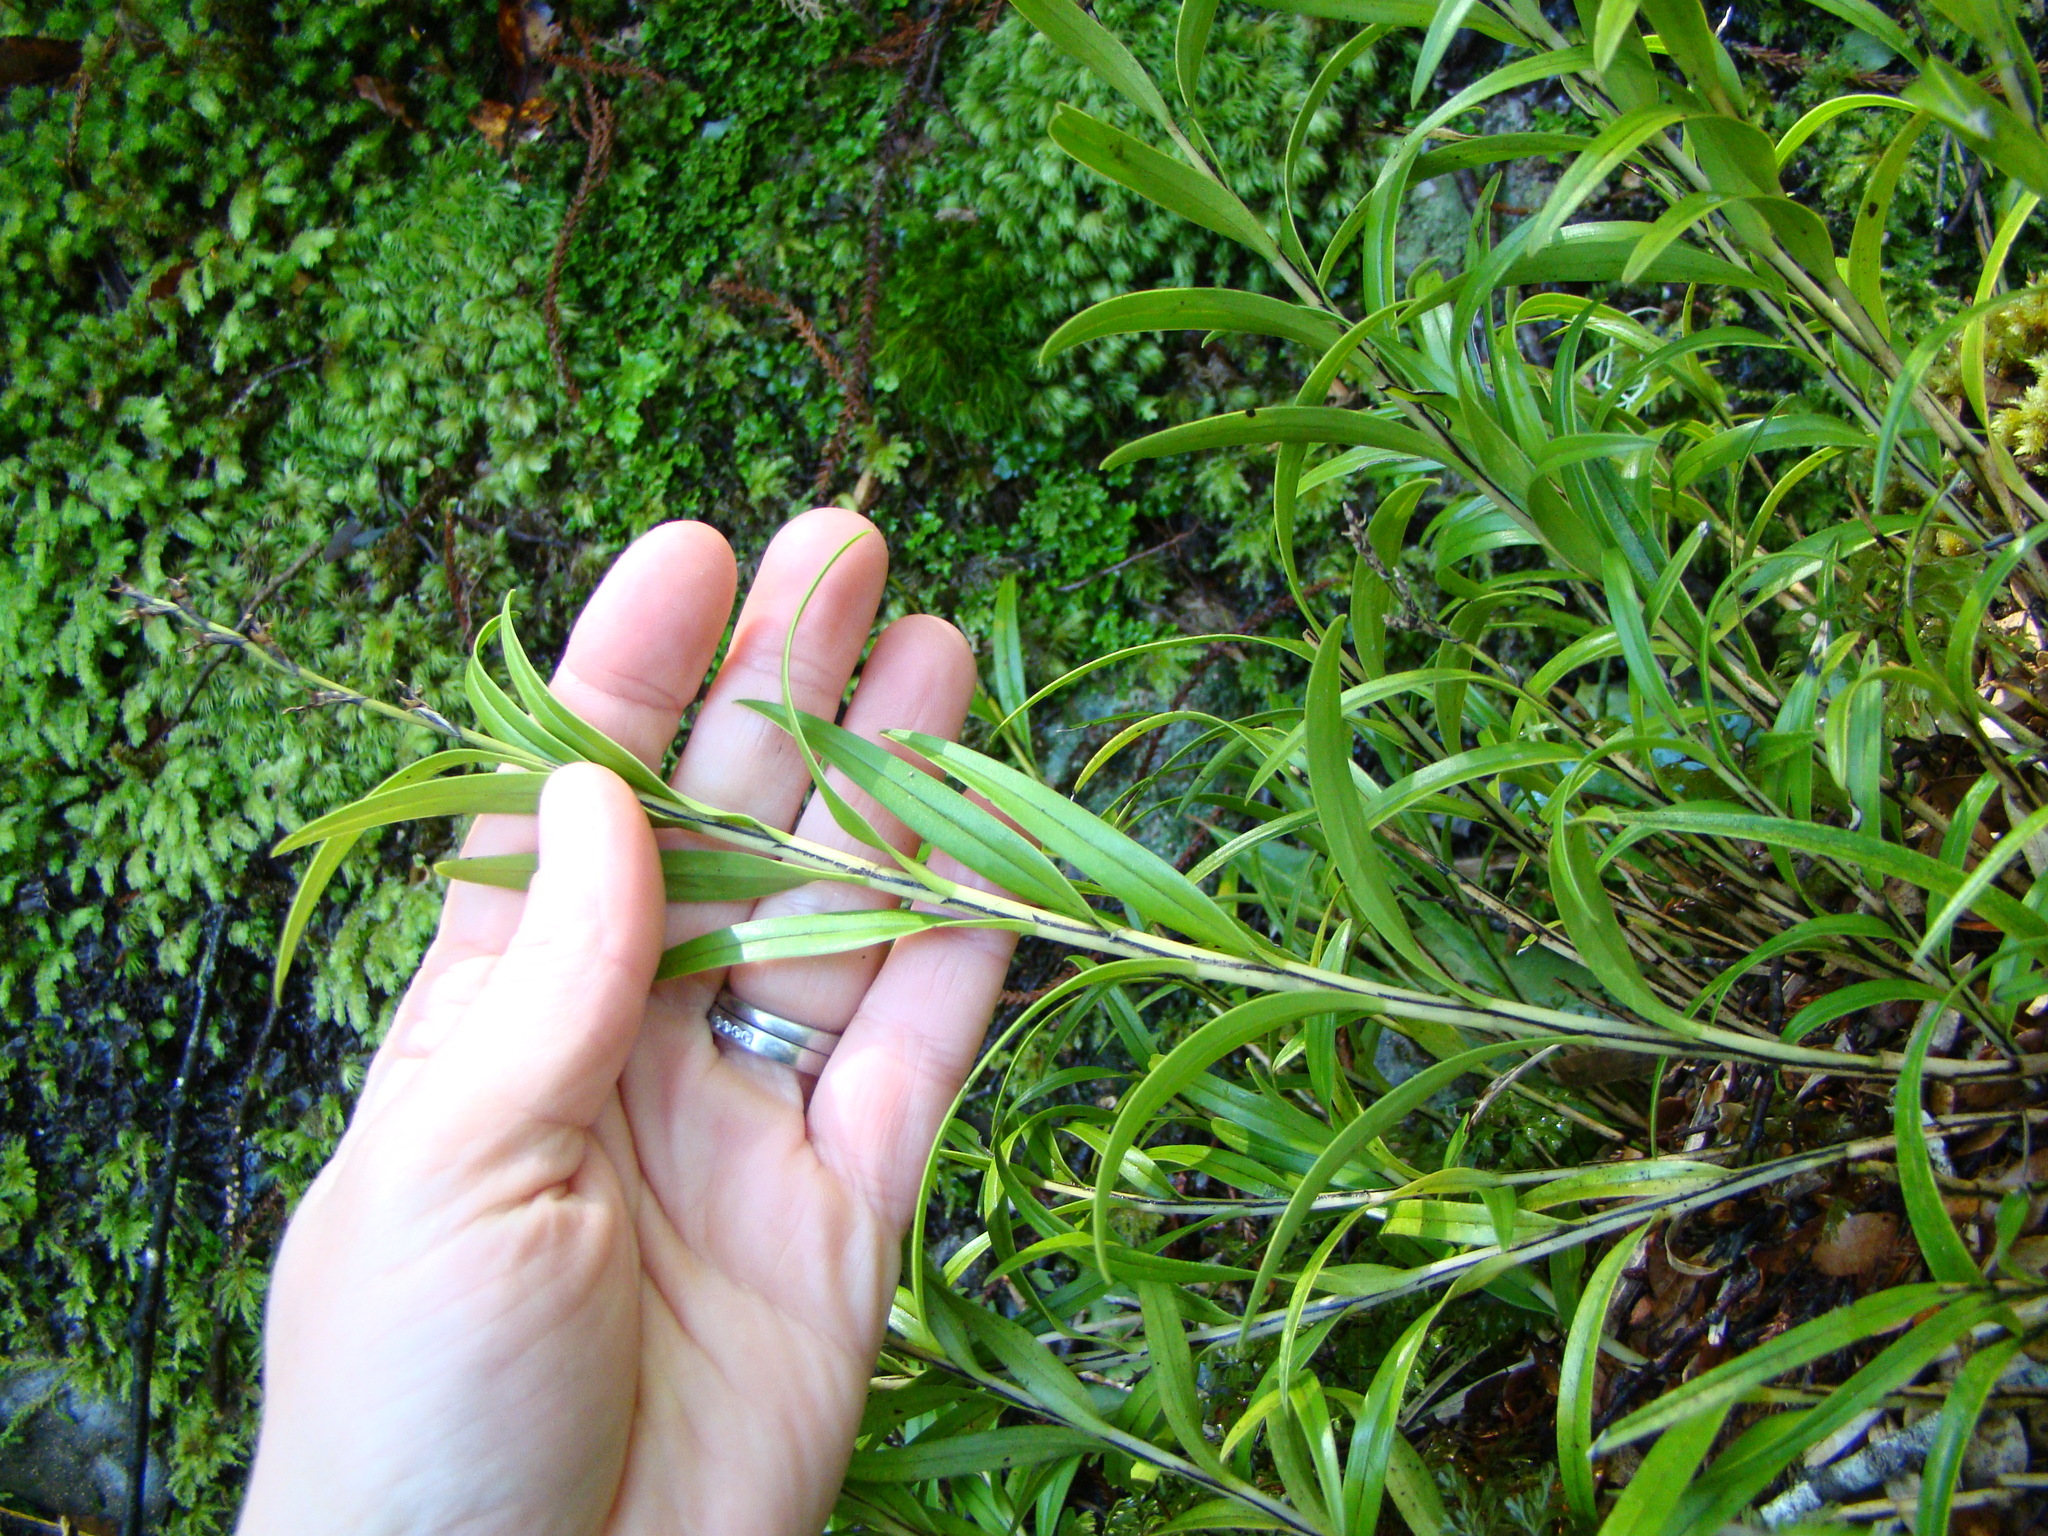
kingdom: Plantae
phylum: Tracheophyta
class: Liliopsida
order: Asparagales
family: Orchidaceae
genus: Earina
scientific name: Earina autumnalis
